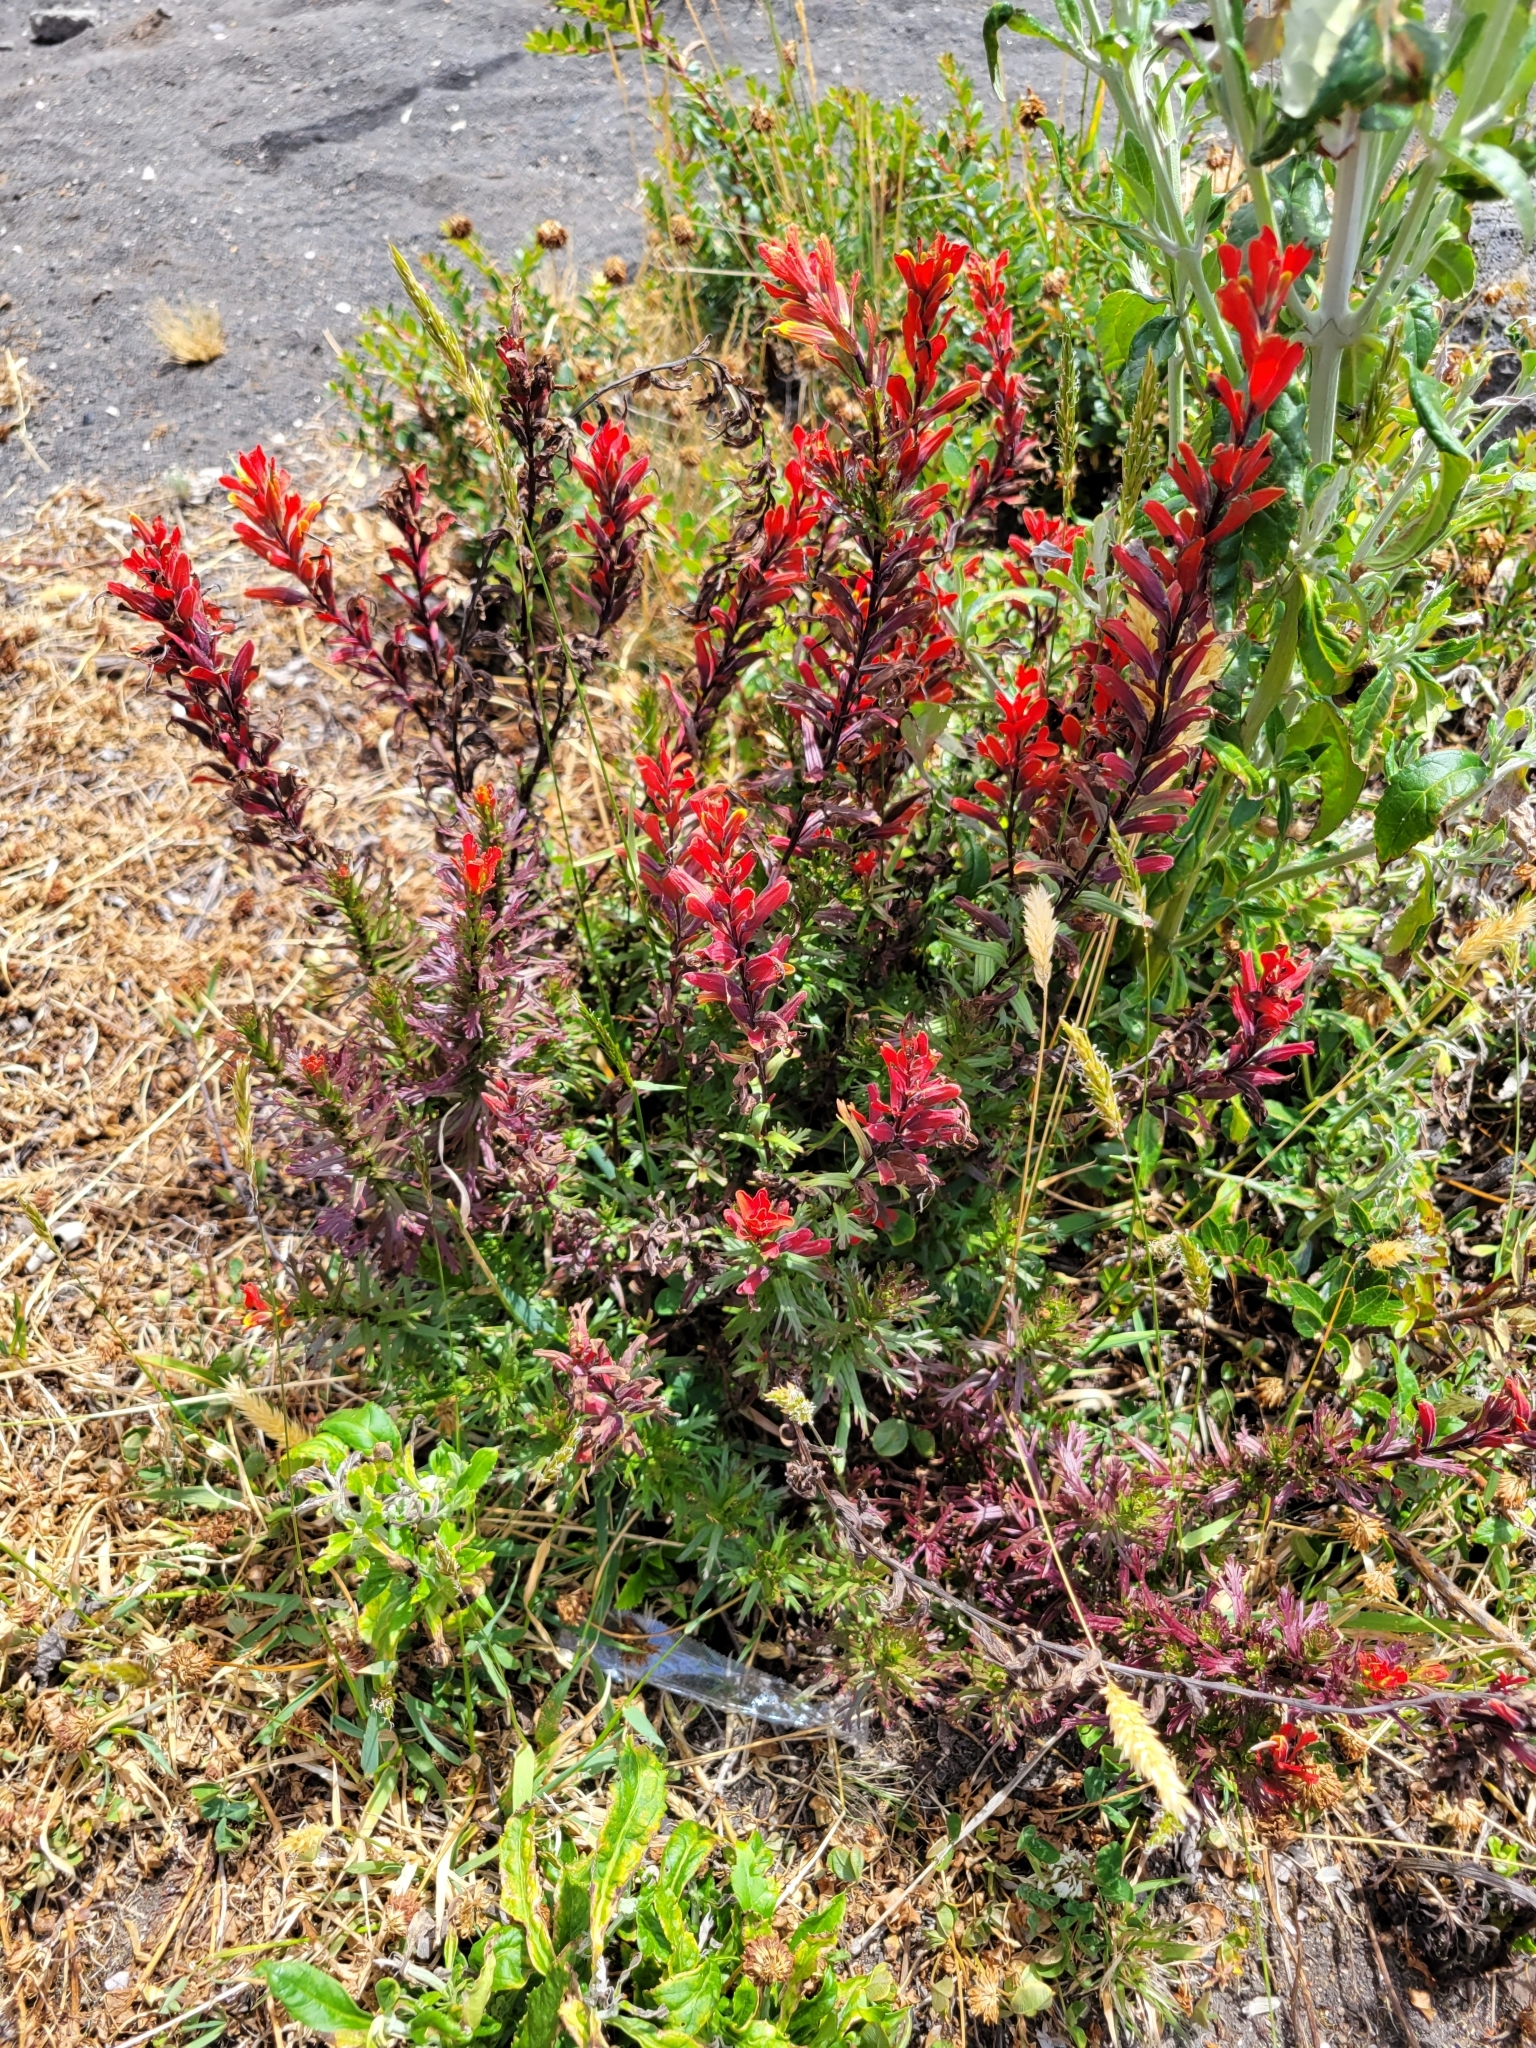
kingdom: Plantae
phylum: Tracheophyta
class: Magnoliopsida
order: Lamiales
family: Orobanchaceae
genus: Castilleja
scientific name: Castilleja irasuensis
